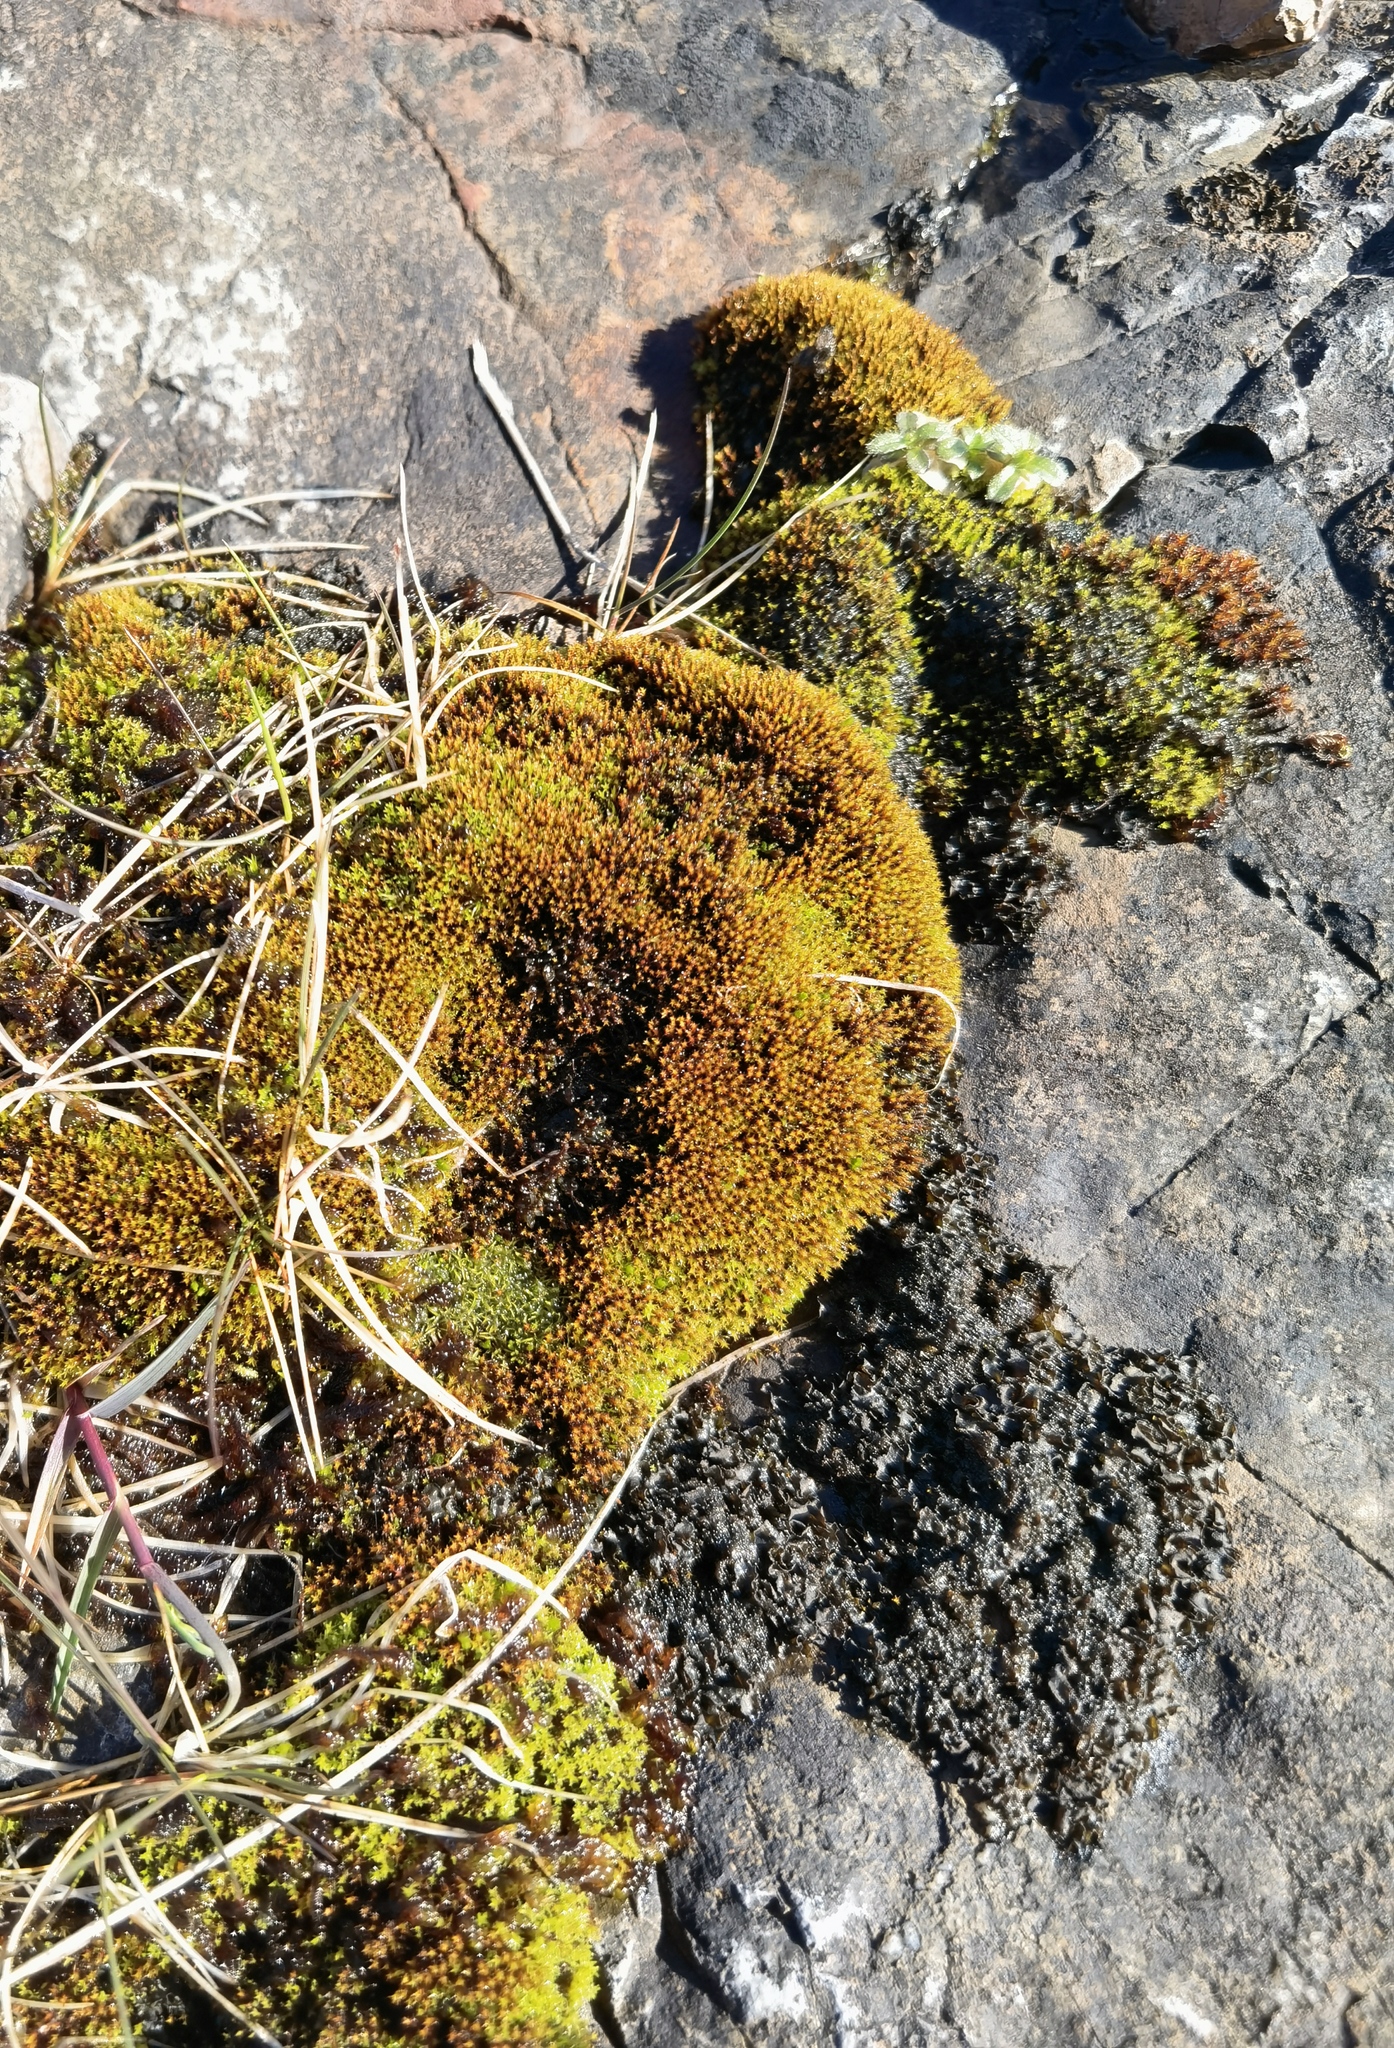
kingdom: Plantae
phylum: Bryophyta
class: Andreaeopsida
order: Andreaeales
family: Andreaeaceae
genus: Andreaea
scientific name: Andreaea rupestris
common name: Black rock moss
